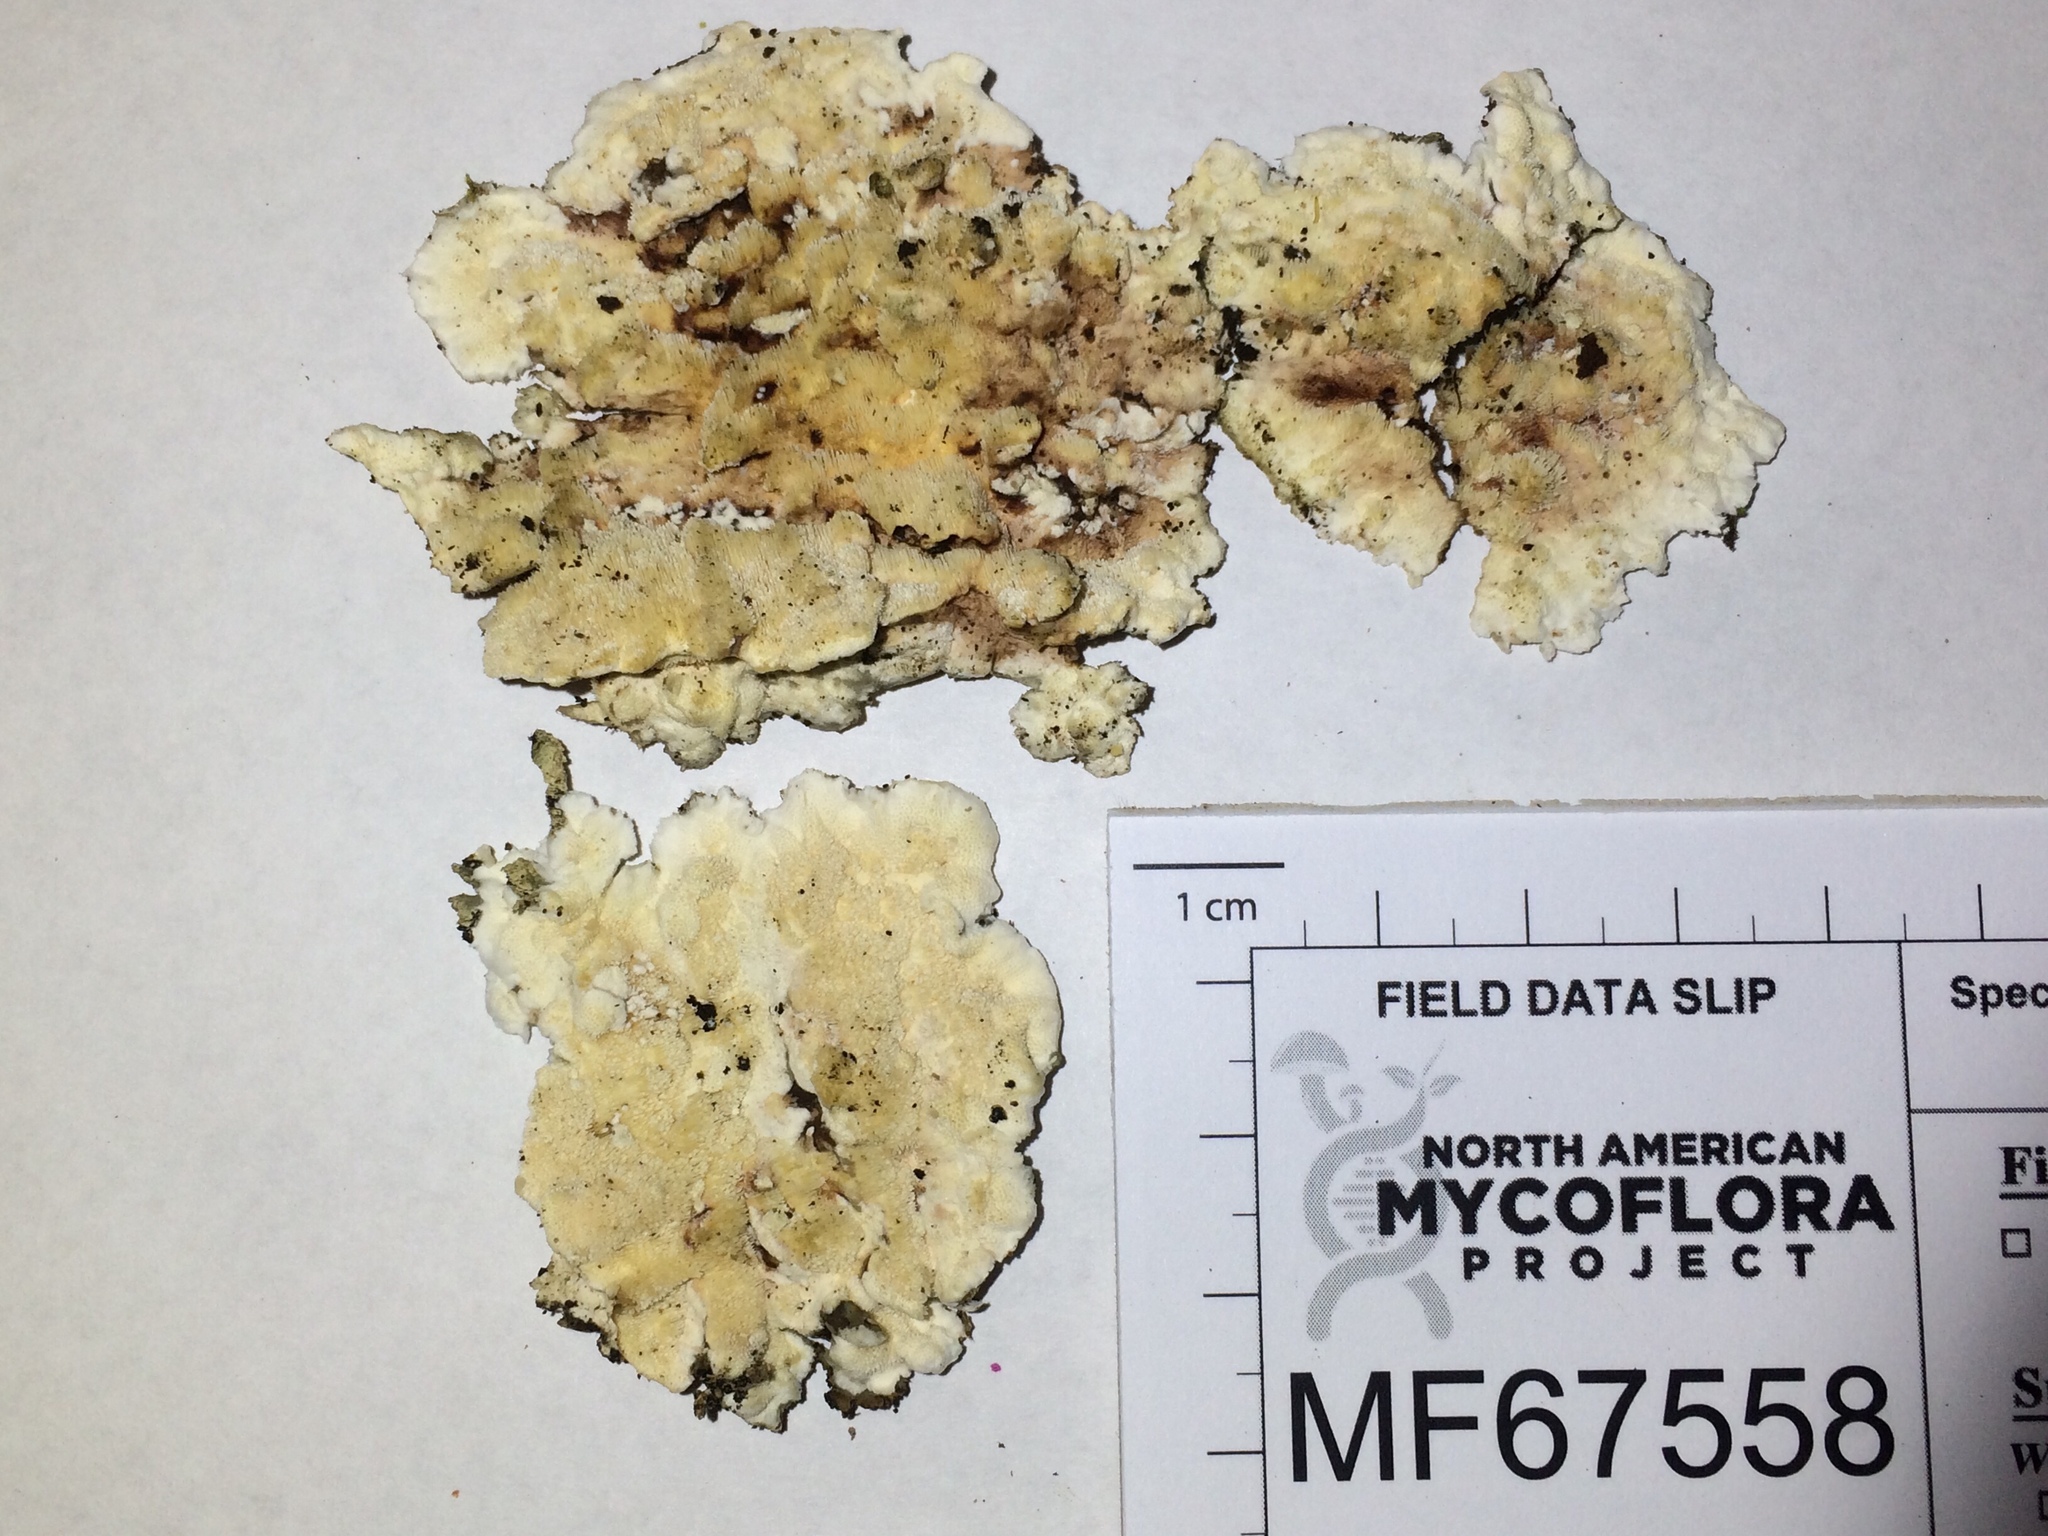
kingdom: Fungi
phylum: Basidiomycota
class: Agaricomycetes
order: Polyporales
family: Steccherinaceae
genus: Steccherinum
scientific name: Steccherinum bourdotii
